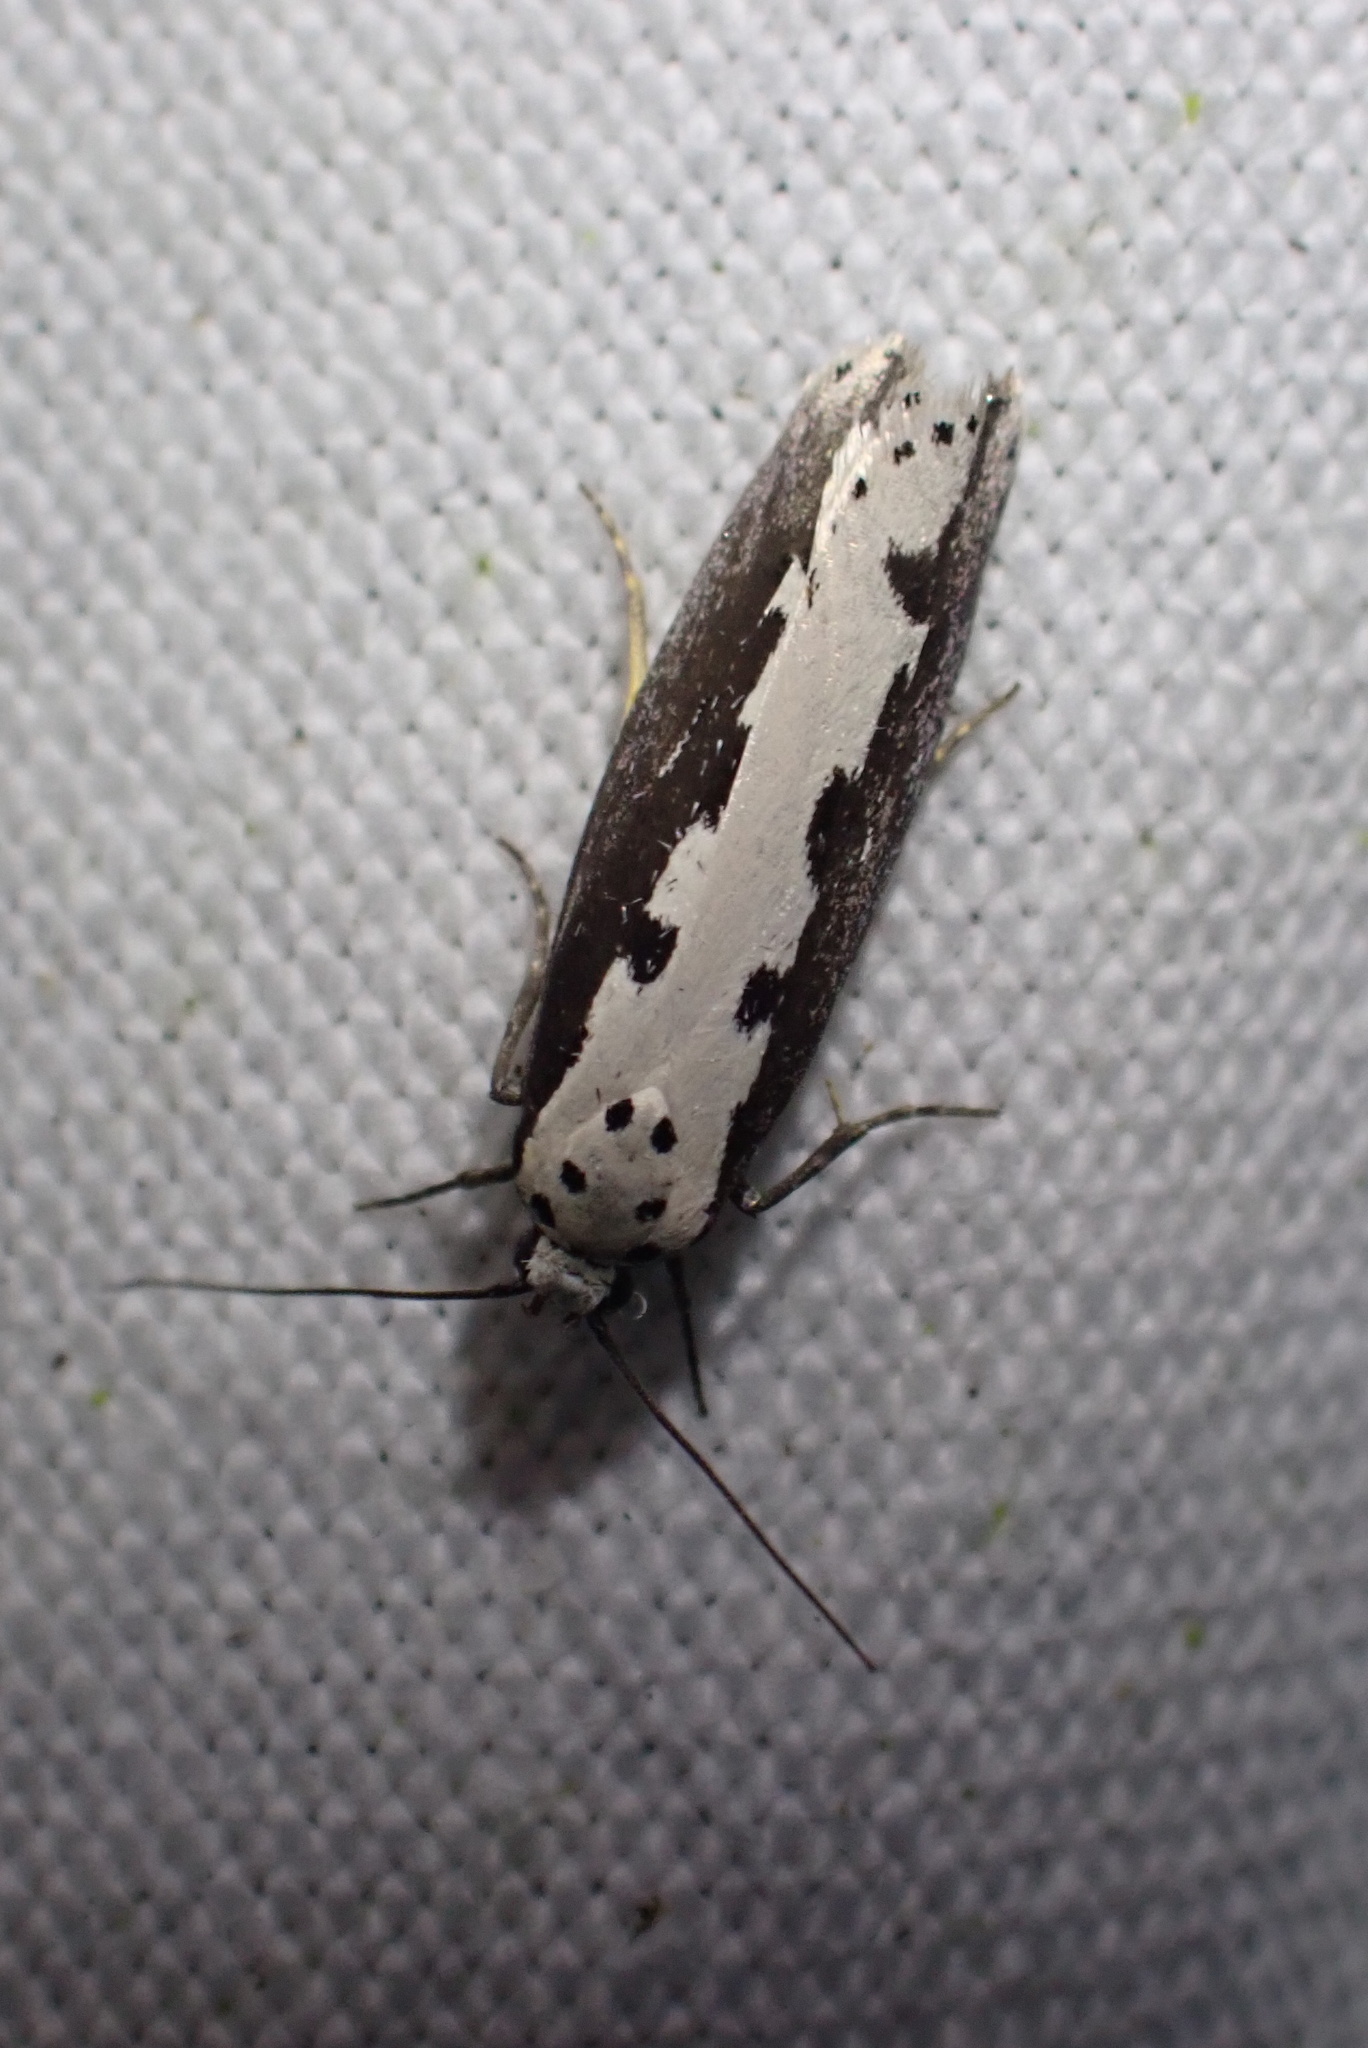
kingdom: Animalia
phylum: Arthropoda
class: Insecta
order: Lepidoptera
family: Ethmiidae
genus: Ethmia
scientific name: Ethmia bipunctella
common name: Bordered ermel
